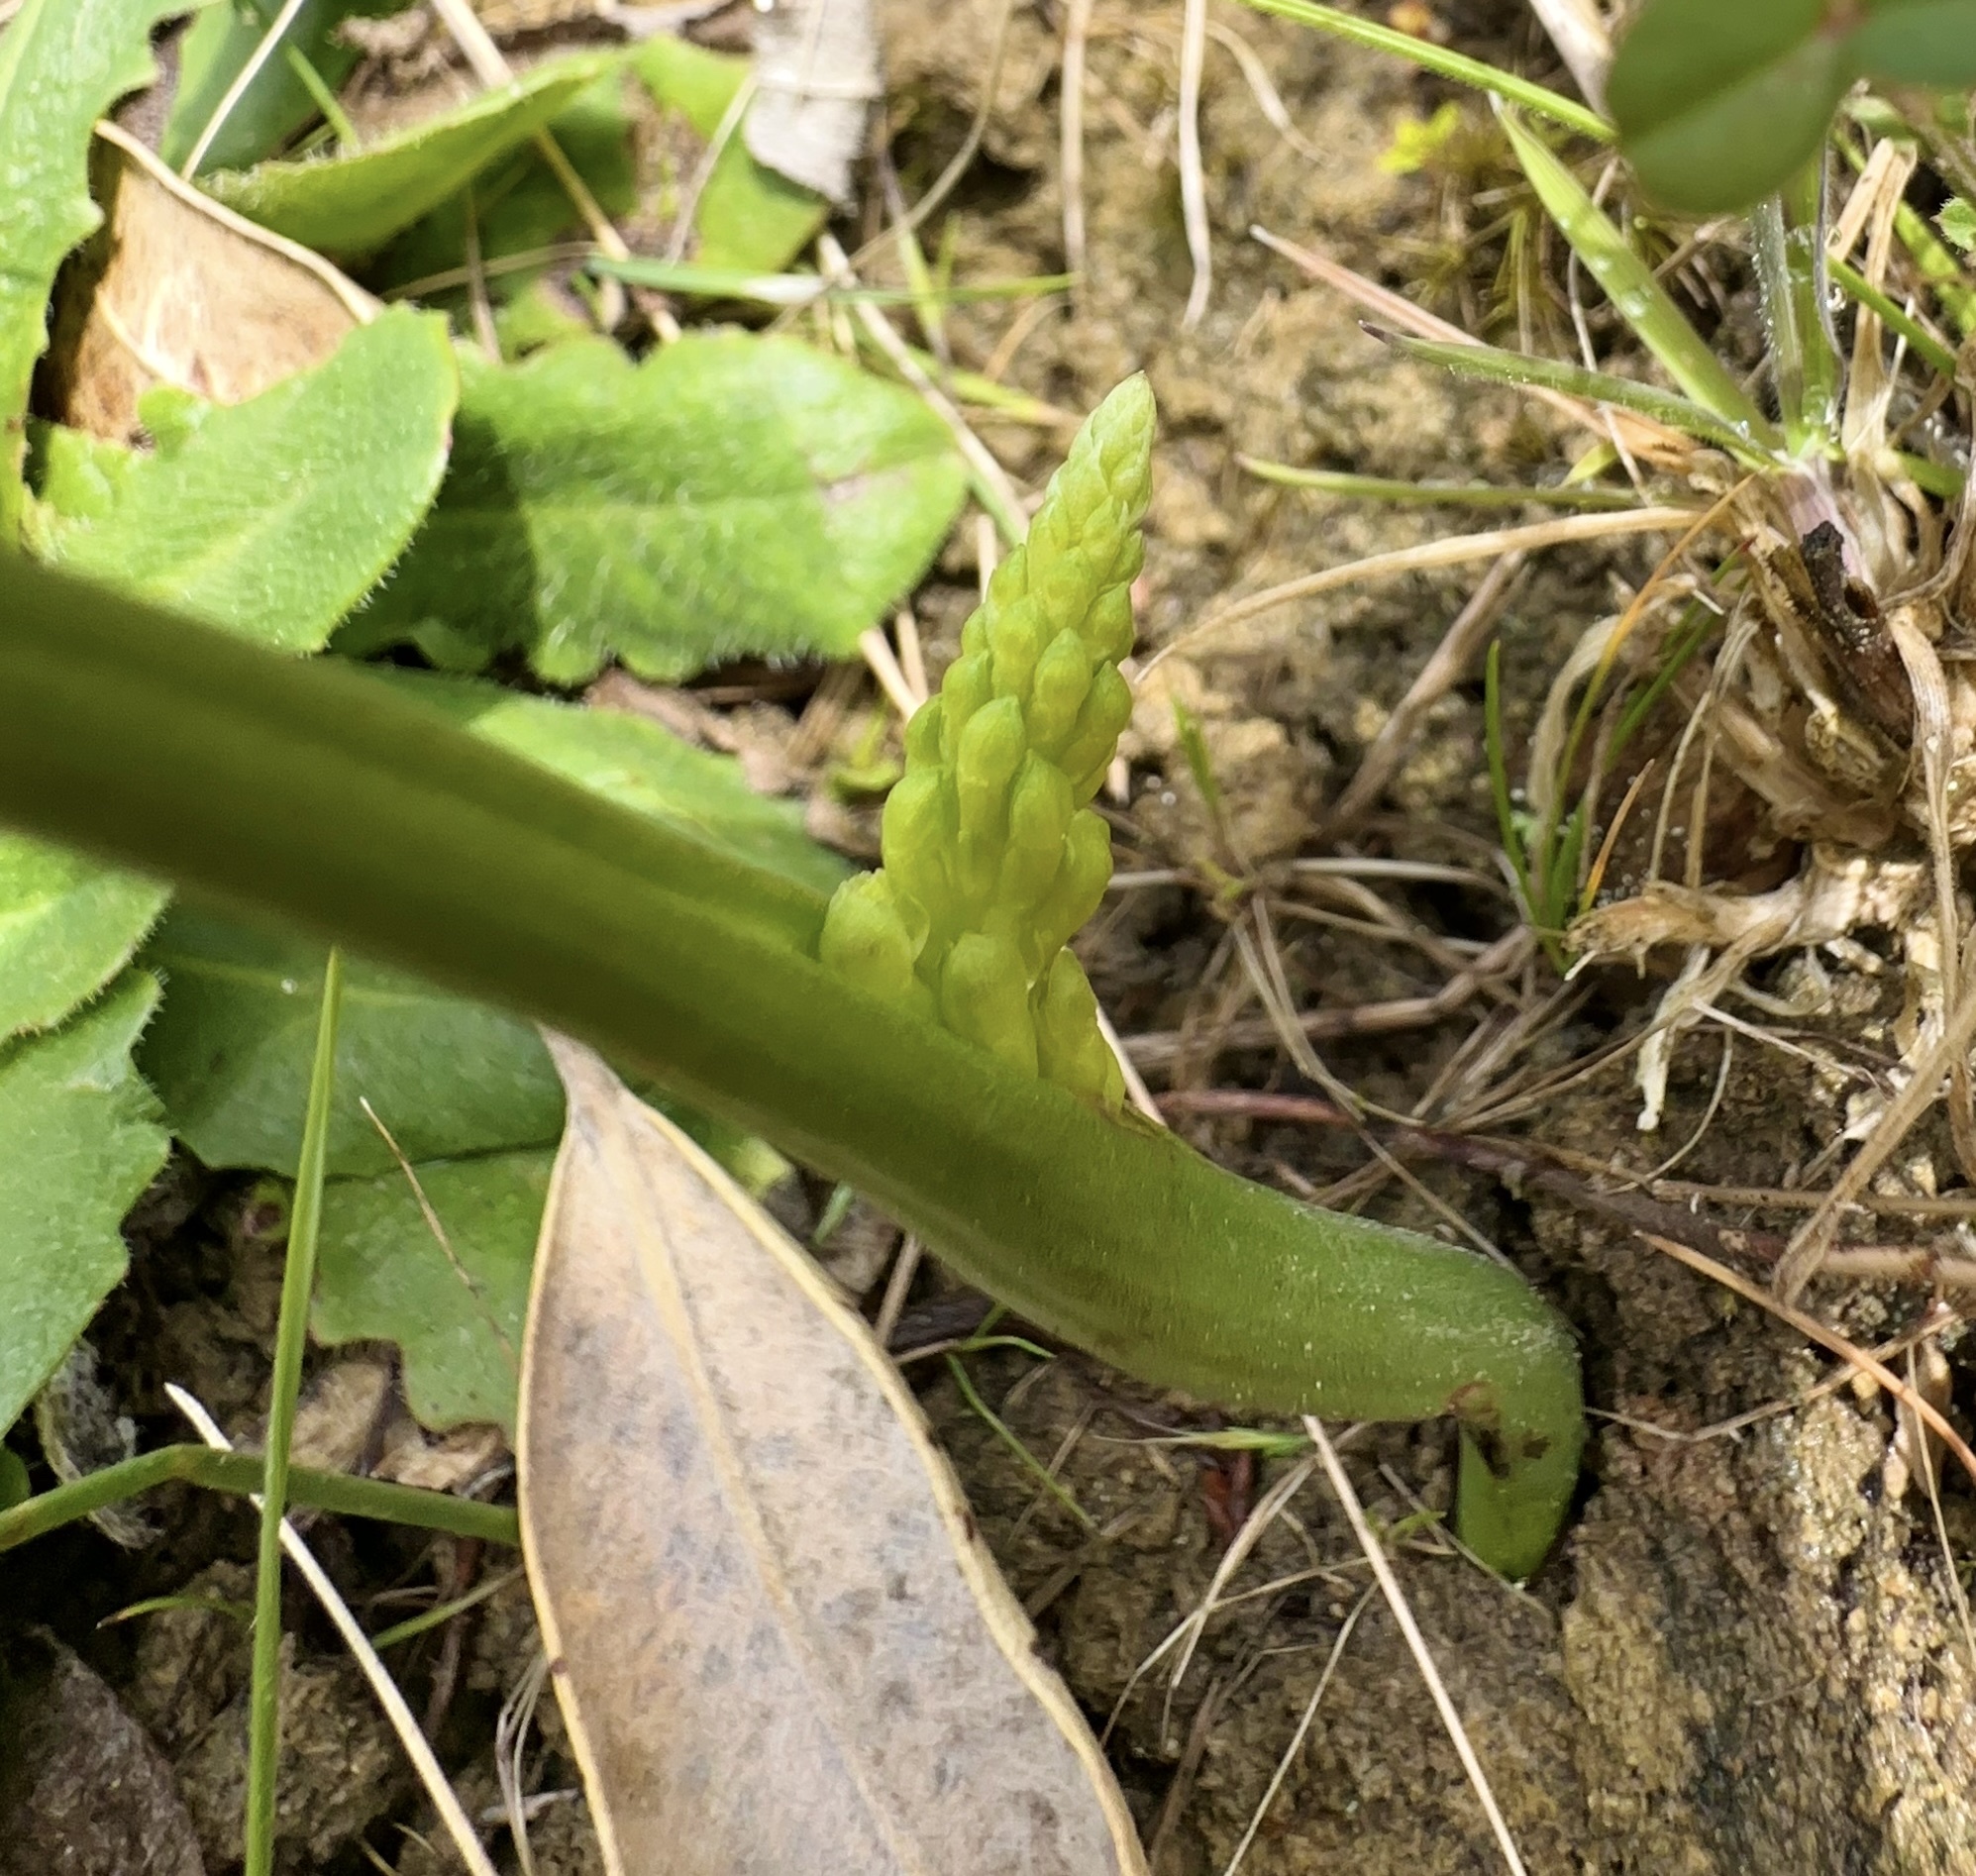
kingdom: Plantae
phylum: Tracheophyta
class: Liliopsida
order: Asparagales
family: Orchidaceae
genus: Microtis
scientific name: Microtis unifolia
